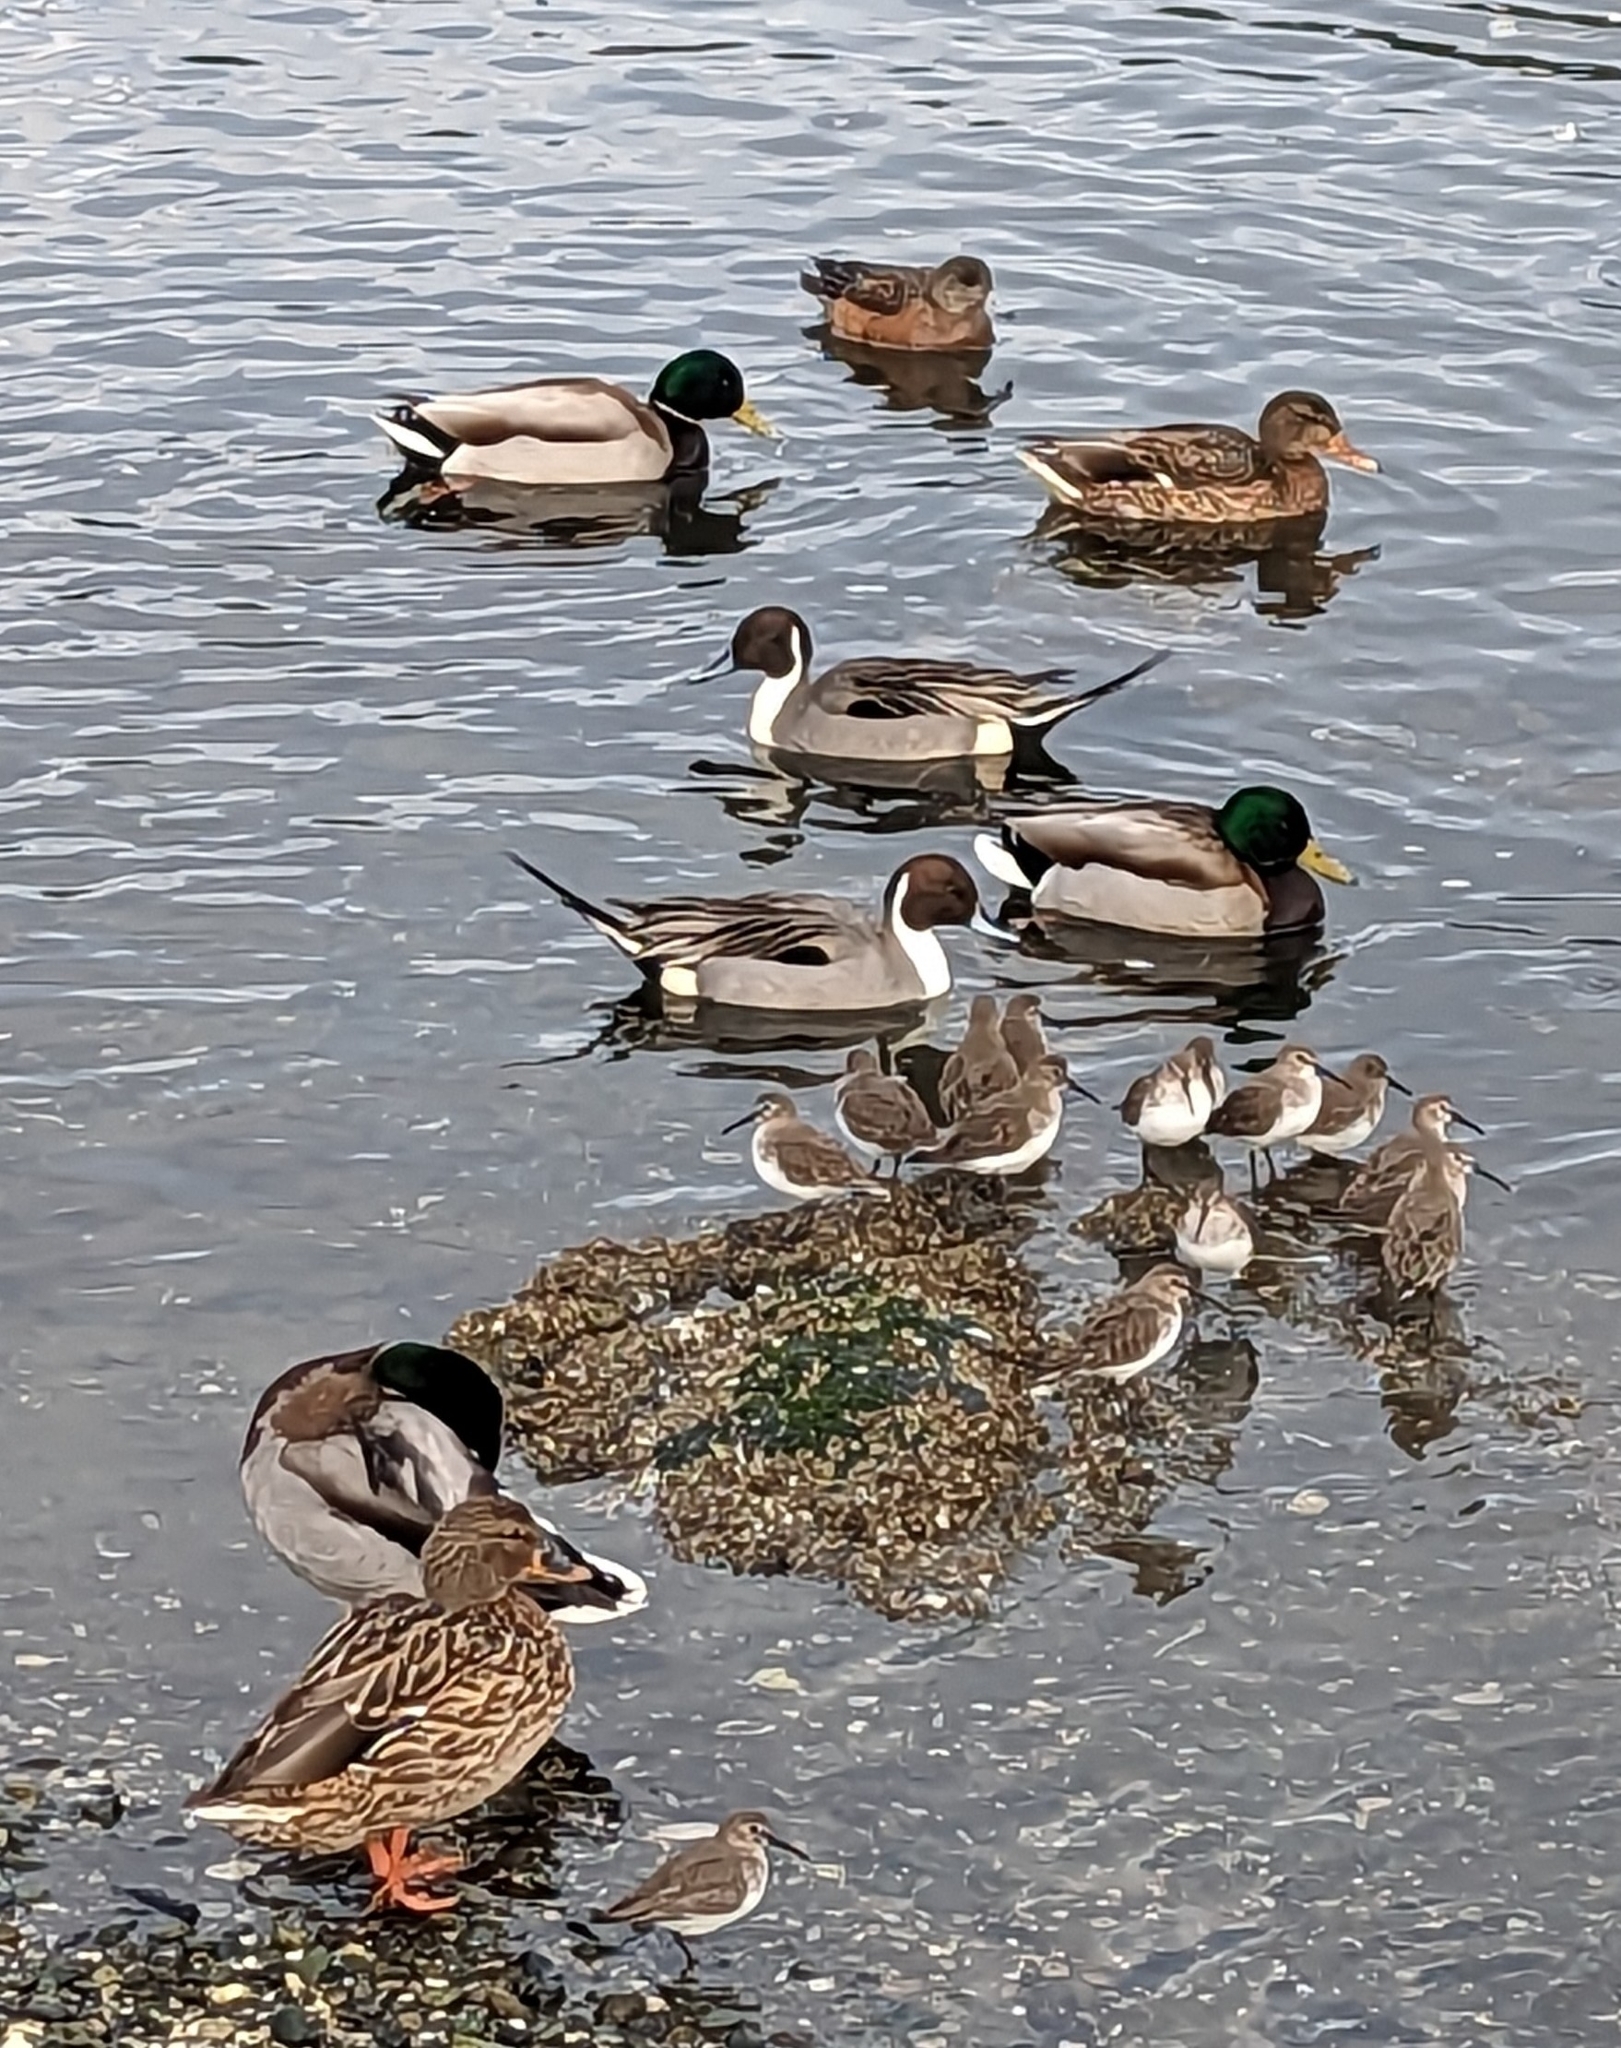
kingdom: Animalia
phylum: Chordata
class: Aves
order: Anseriformes
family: Anatidae
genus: Anas
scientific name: Anas acuta
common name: Northern pintail
